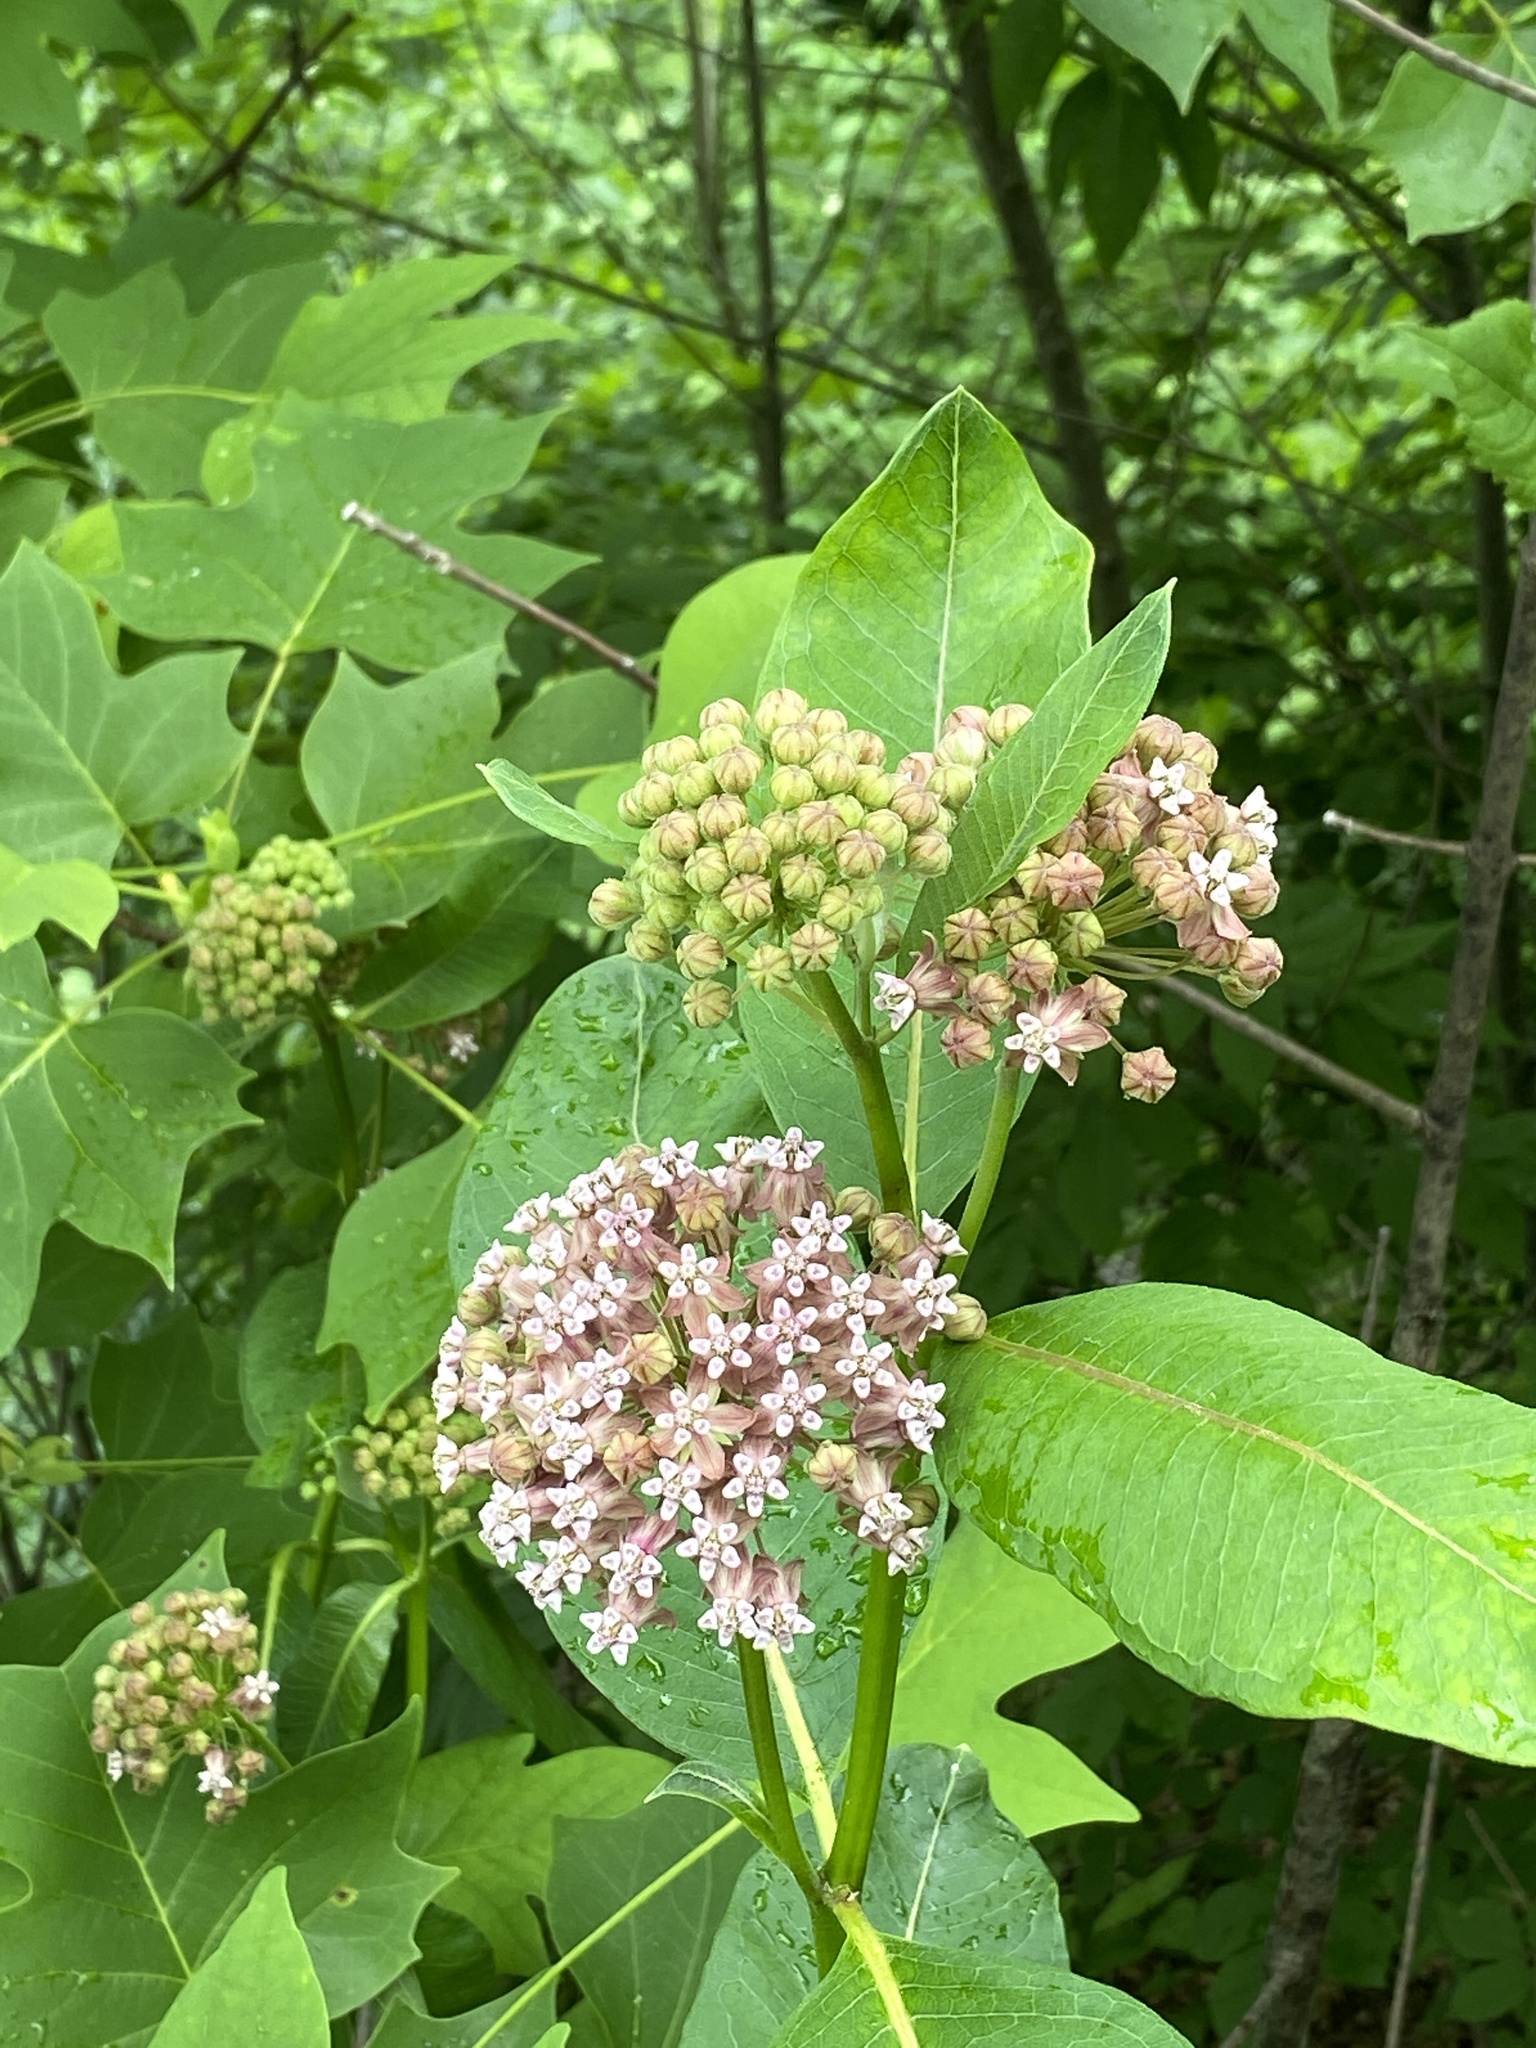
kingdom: Plantae
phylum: Tracheophyta
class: Magnoliopsida
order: Gentianales
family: Apocynaceae
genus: Asclepias
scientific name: Asclepias syriaca
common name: Common milkweed
